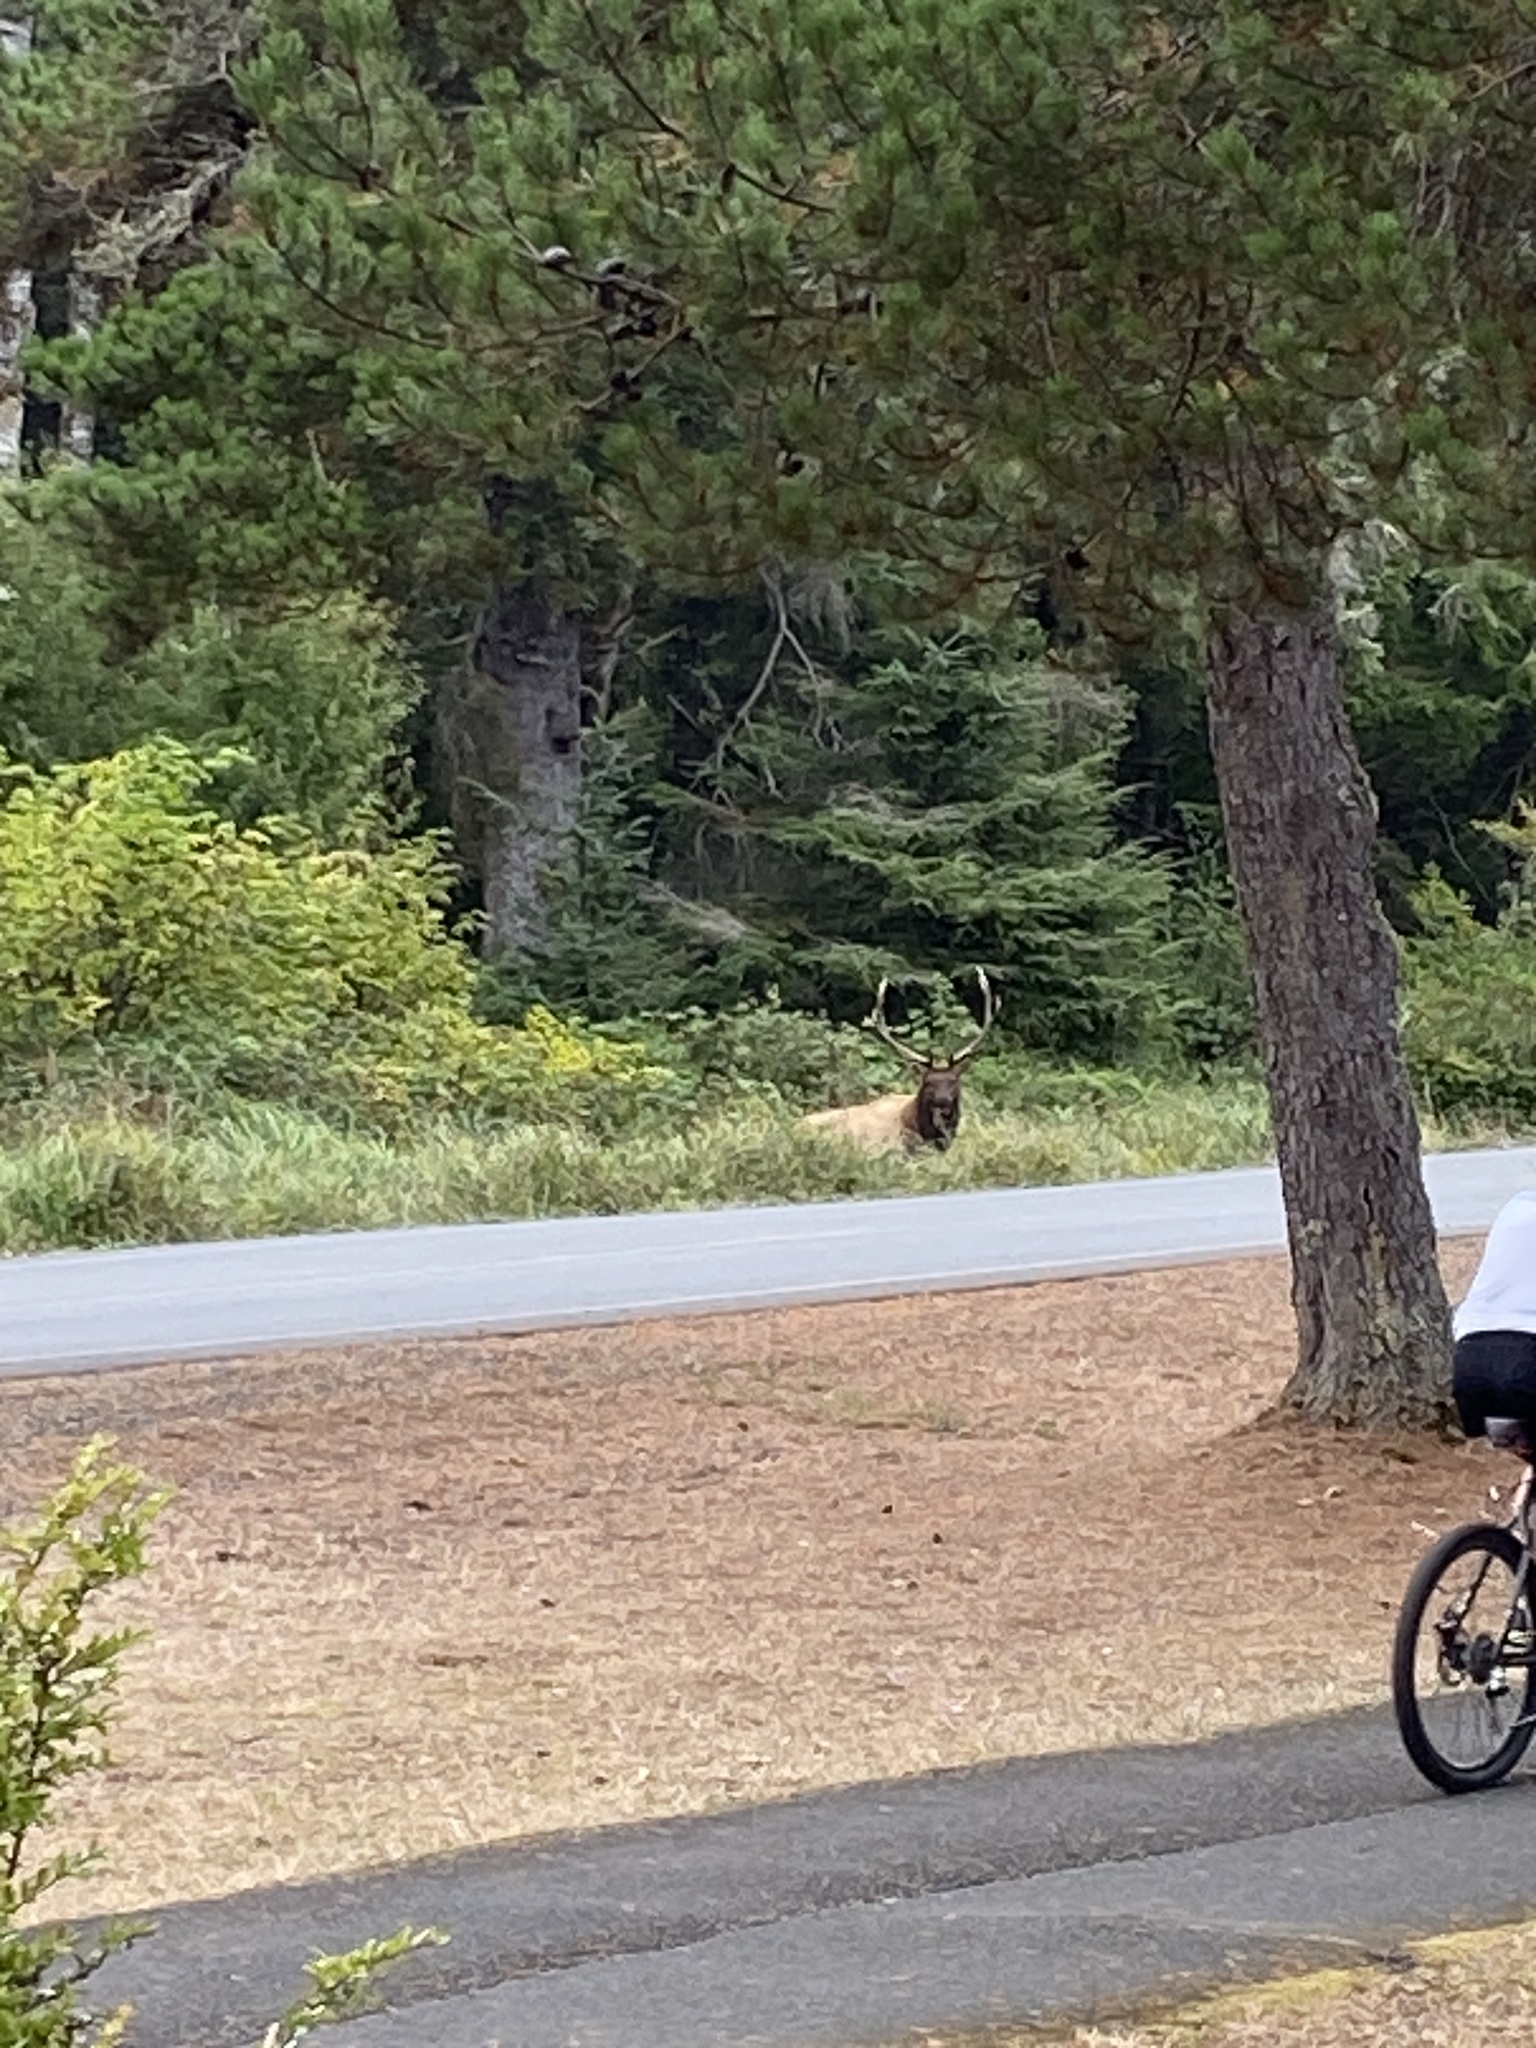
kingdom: Animalia
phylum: Chordata
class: Mammalia
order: Artiodactyla
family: Cervidae
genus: Cervus
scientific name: Cervus elaphus
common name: Red deer
